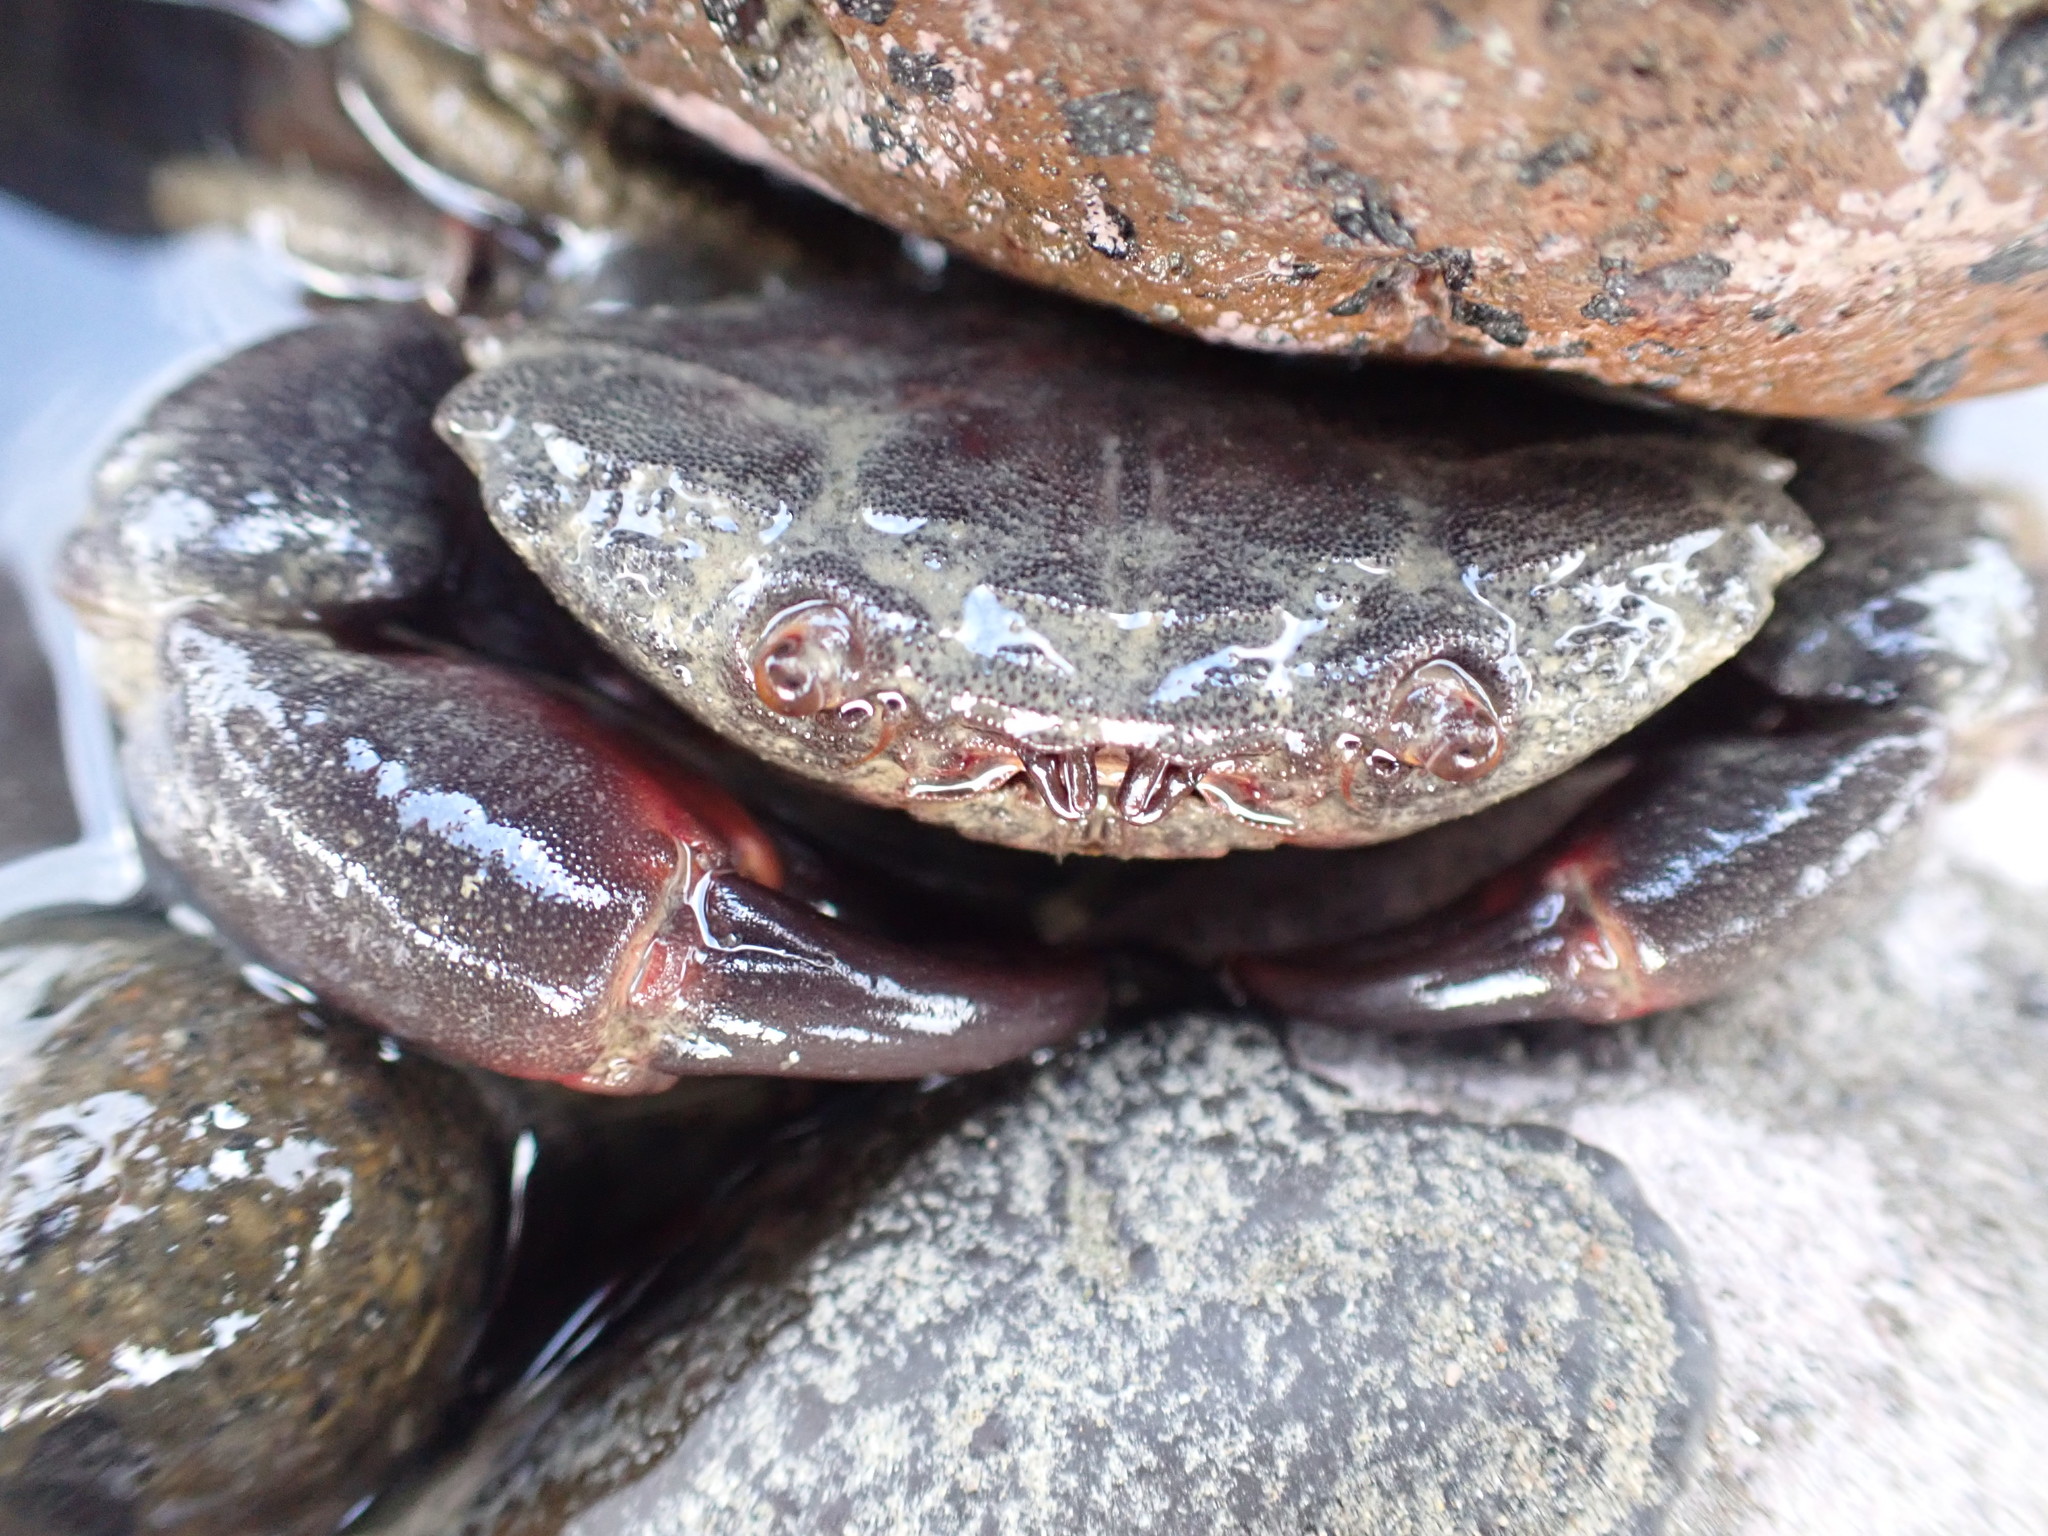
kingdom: Animalia
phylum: Arthropoda
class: Malacostraca
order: Decapoda
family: Oziidae
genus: Ozius
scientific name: Ozius deplanatus
